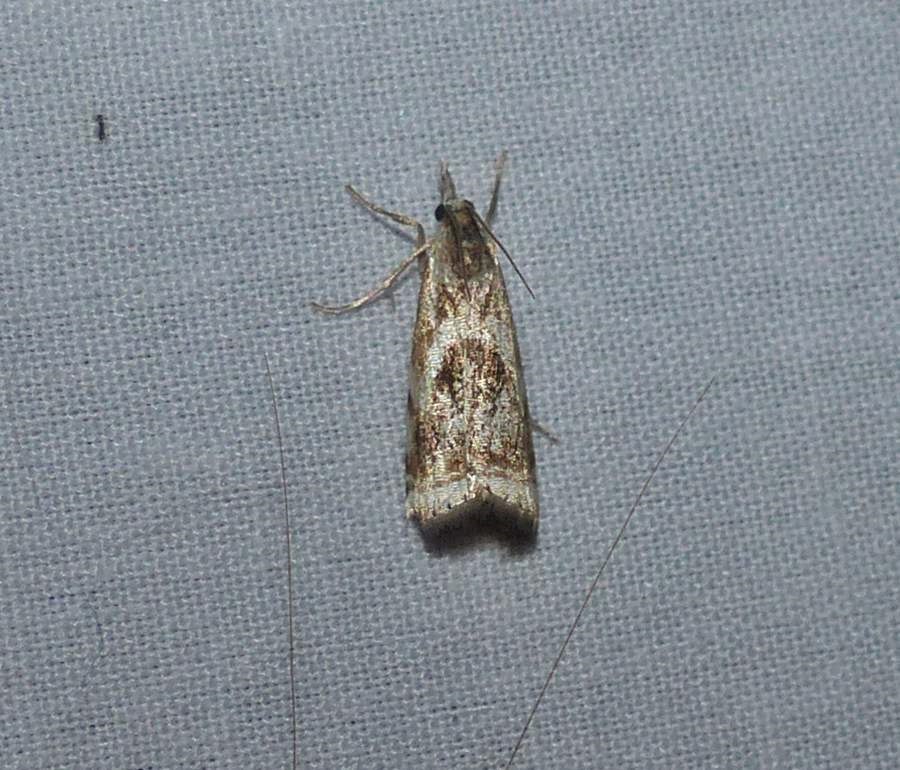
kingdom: Animalia
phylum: Arthropoda
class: Insecta
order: Lepidoptera
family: Crambidae
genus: Microcrambus
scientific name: Microcrambus elegans
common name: Elegant grass-veneer
